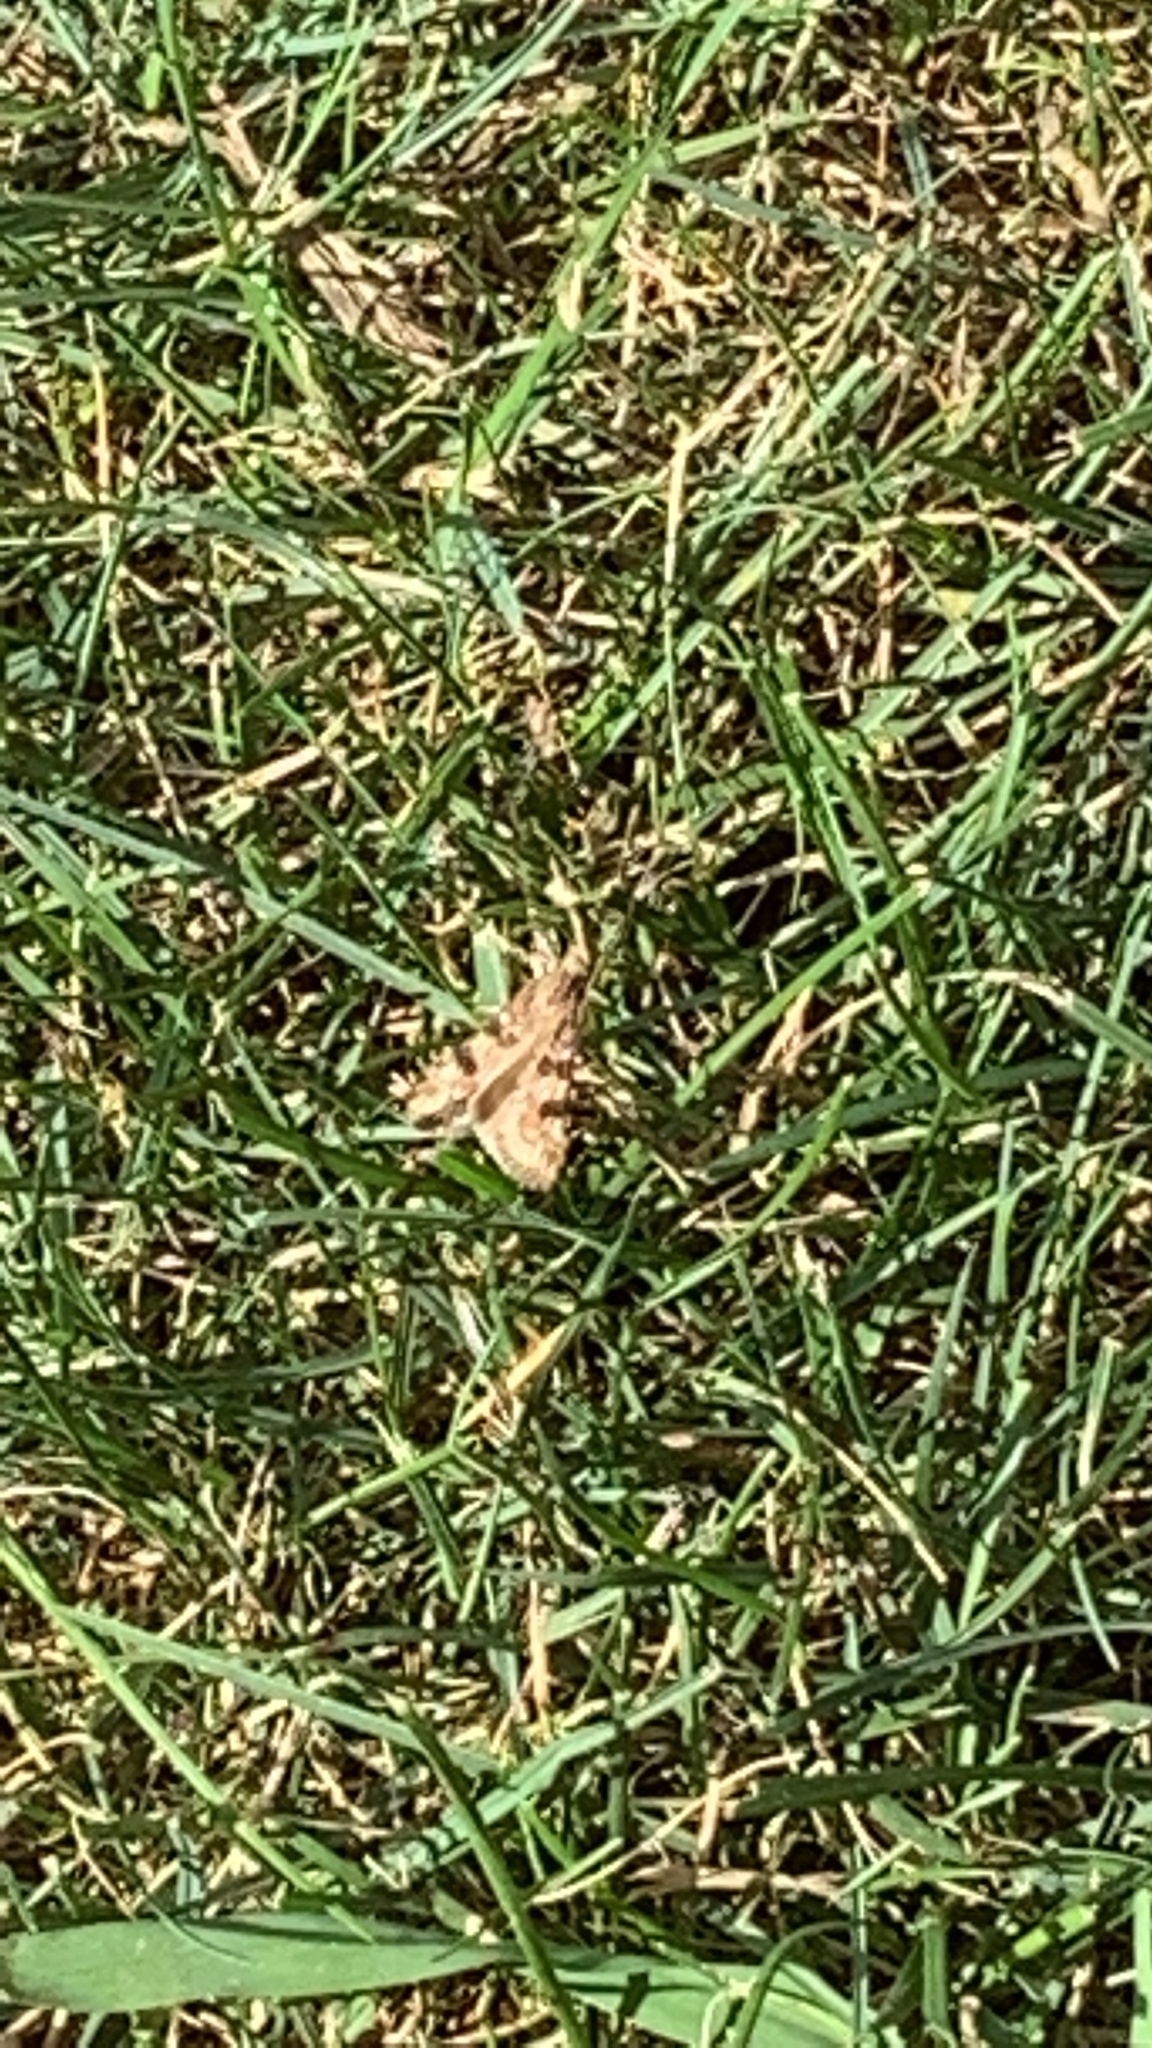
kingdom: Animalia
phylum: Arthropoda
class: Insecta
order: Lepidoptera
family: Crambidae
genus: Nomophila
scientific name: Nomophila nearctica
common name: American rush veneer
